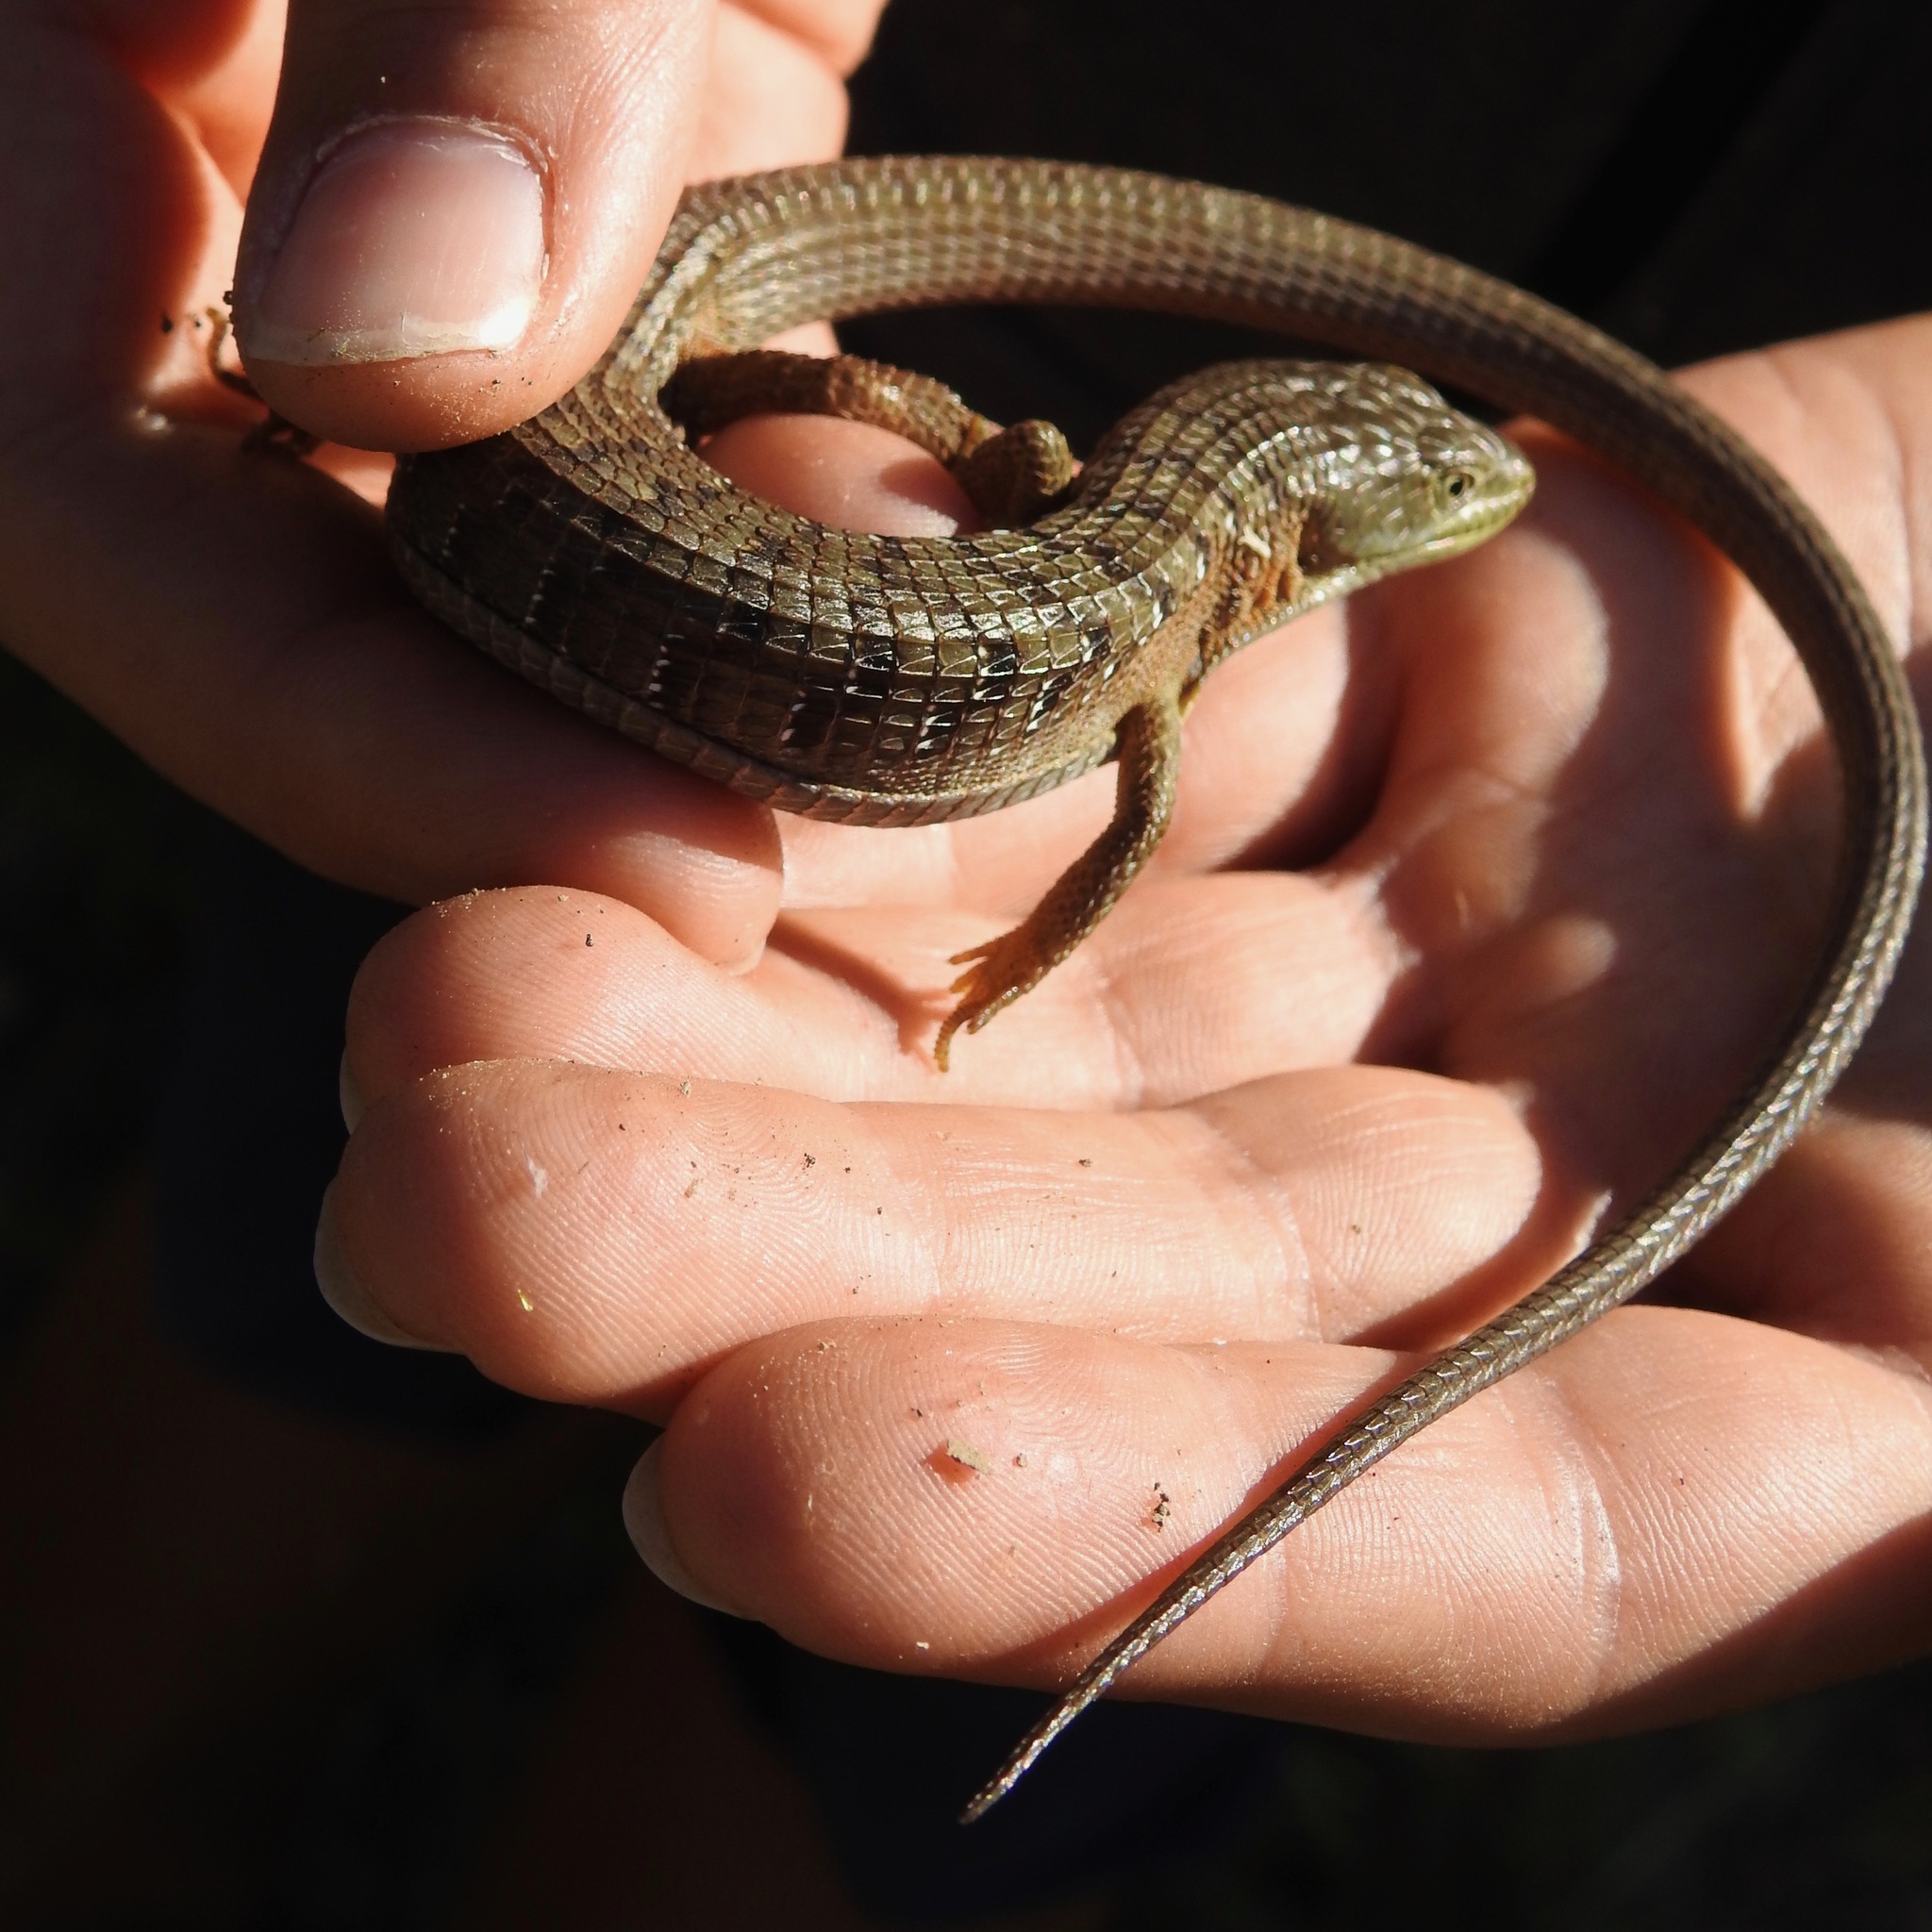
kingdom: Animalia
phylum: Chordata
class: Squamata
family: Anguidae
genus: Elgaria
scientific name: Elgaria multicarinata
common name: Southern alligator lizard
